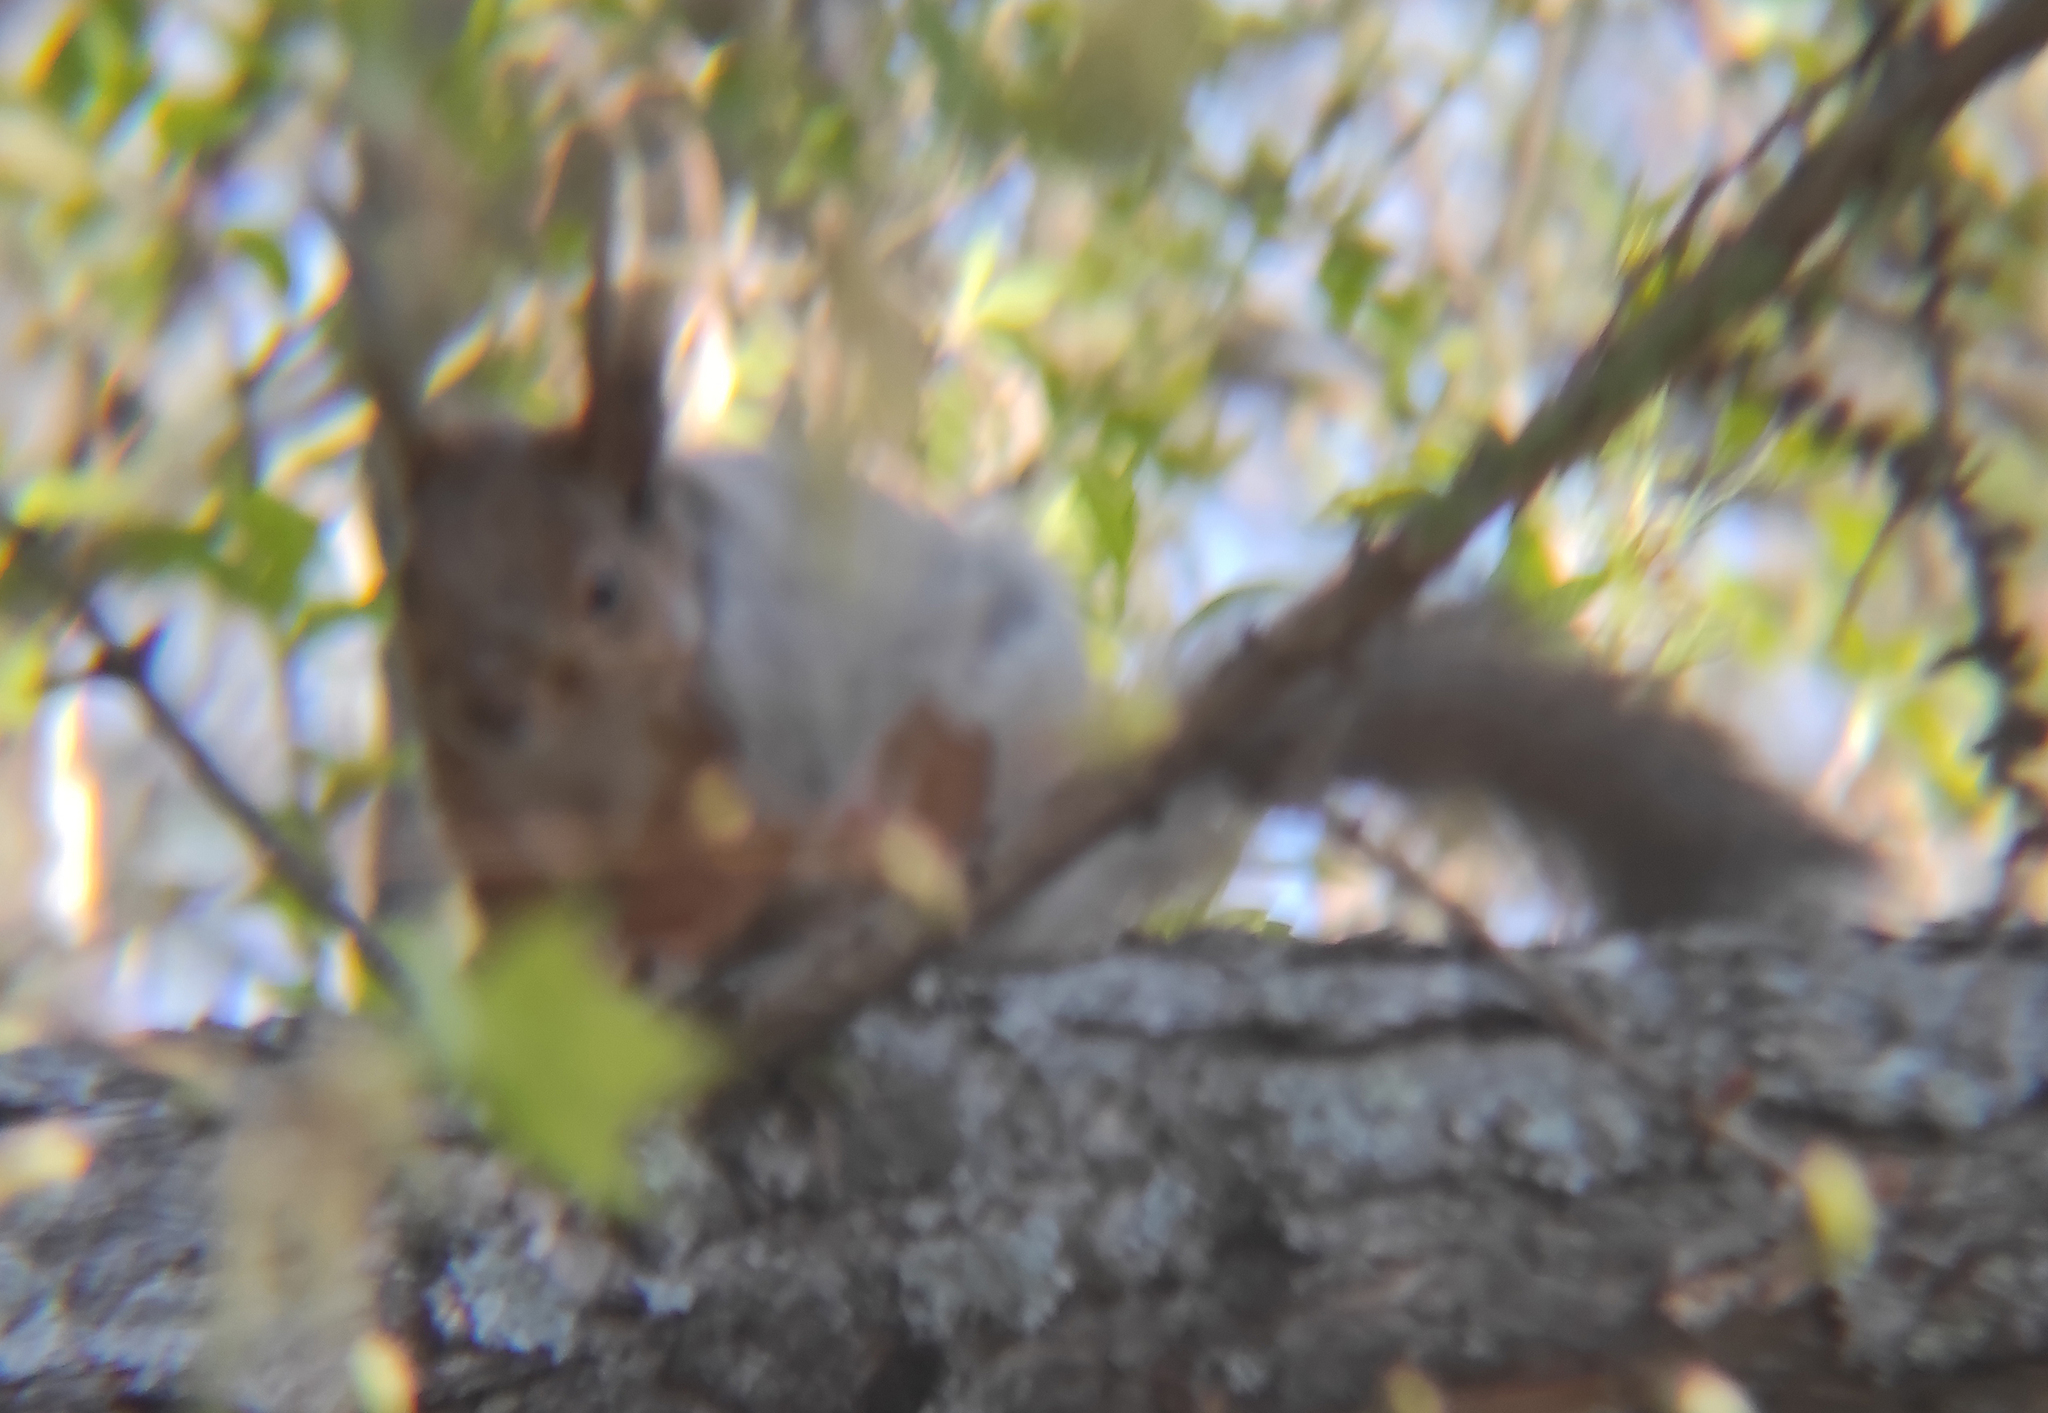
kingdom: Animalia
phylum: Chordata
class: Mammalia
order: Rodentia
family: Sciuridae
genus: Sciurus
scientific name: Sciurus vulgaris
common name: Eurasian red squirrel
